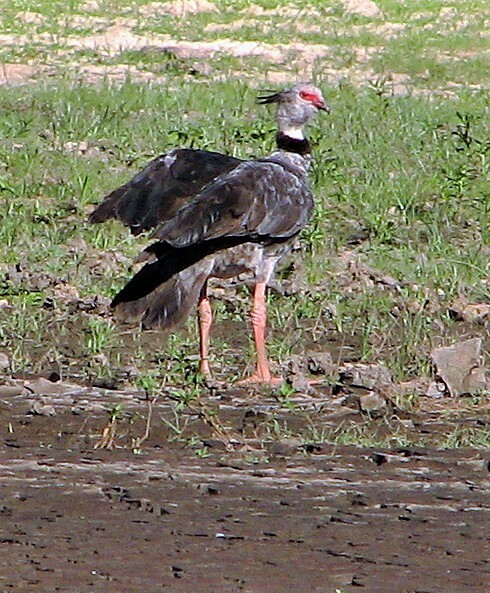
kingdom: Animalia
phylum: Chordata
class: Aves
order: Anseriformes
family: Anhimidae
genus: Chauna
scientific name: Chauna torquata
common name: Southern screamer
